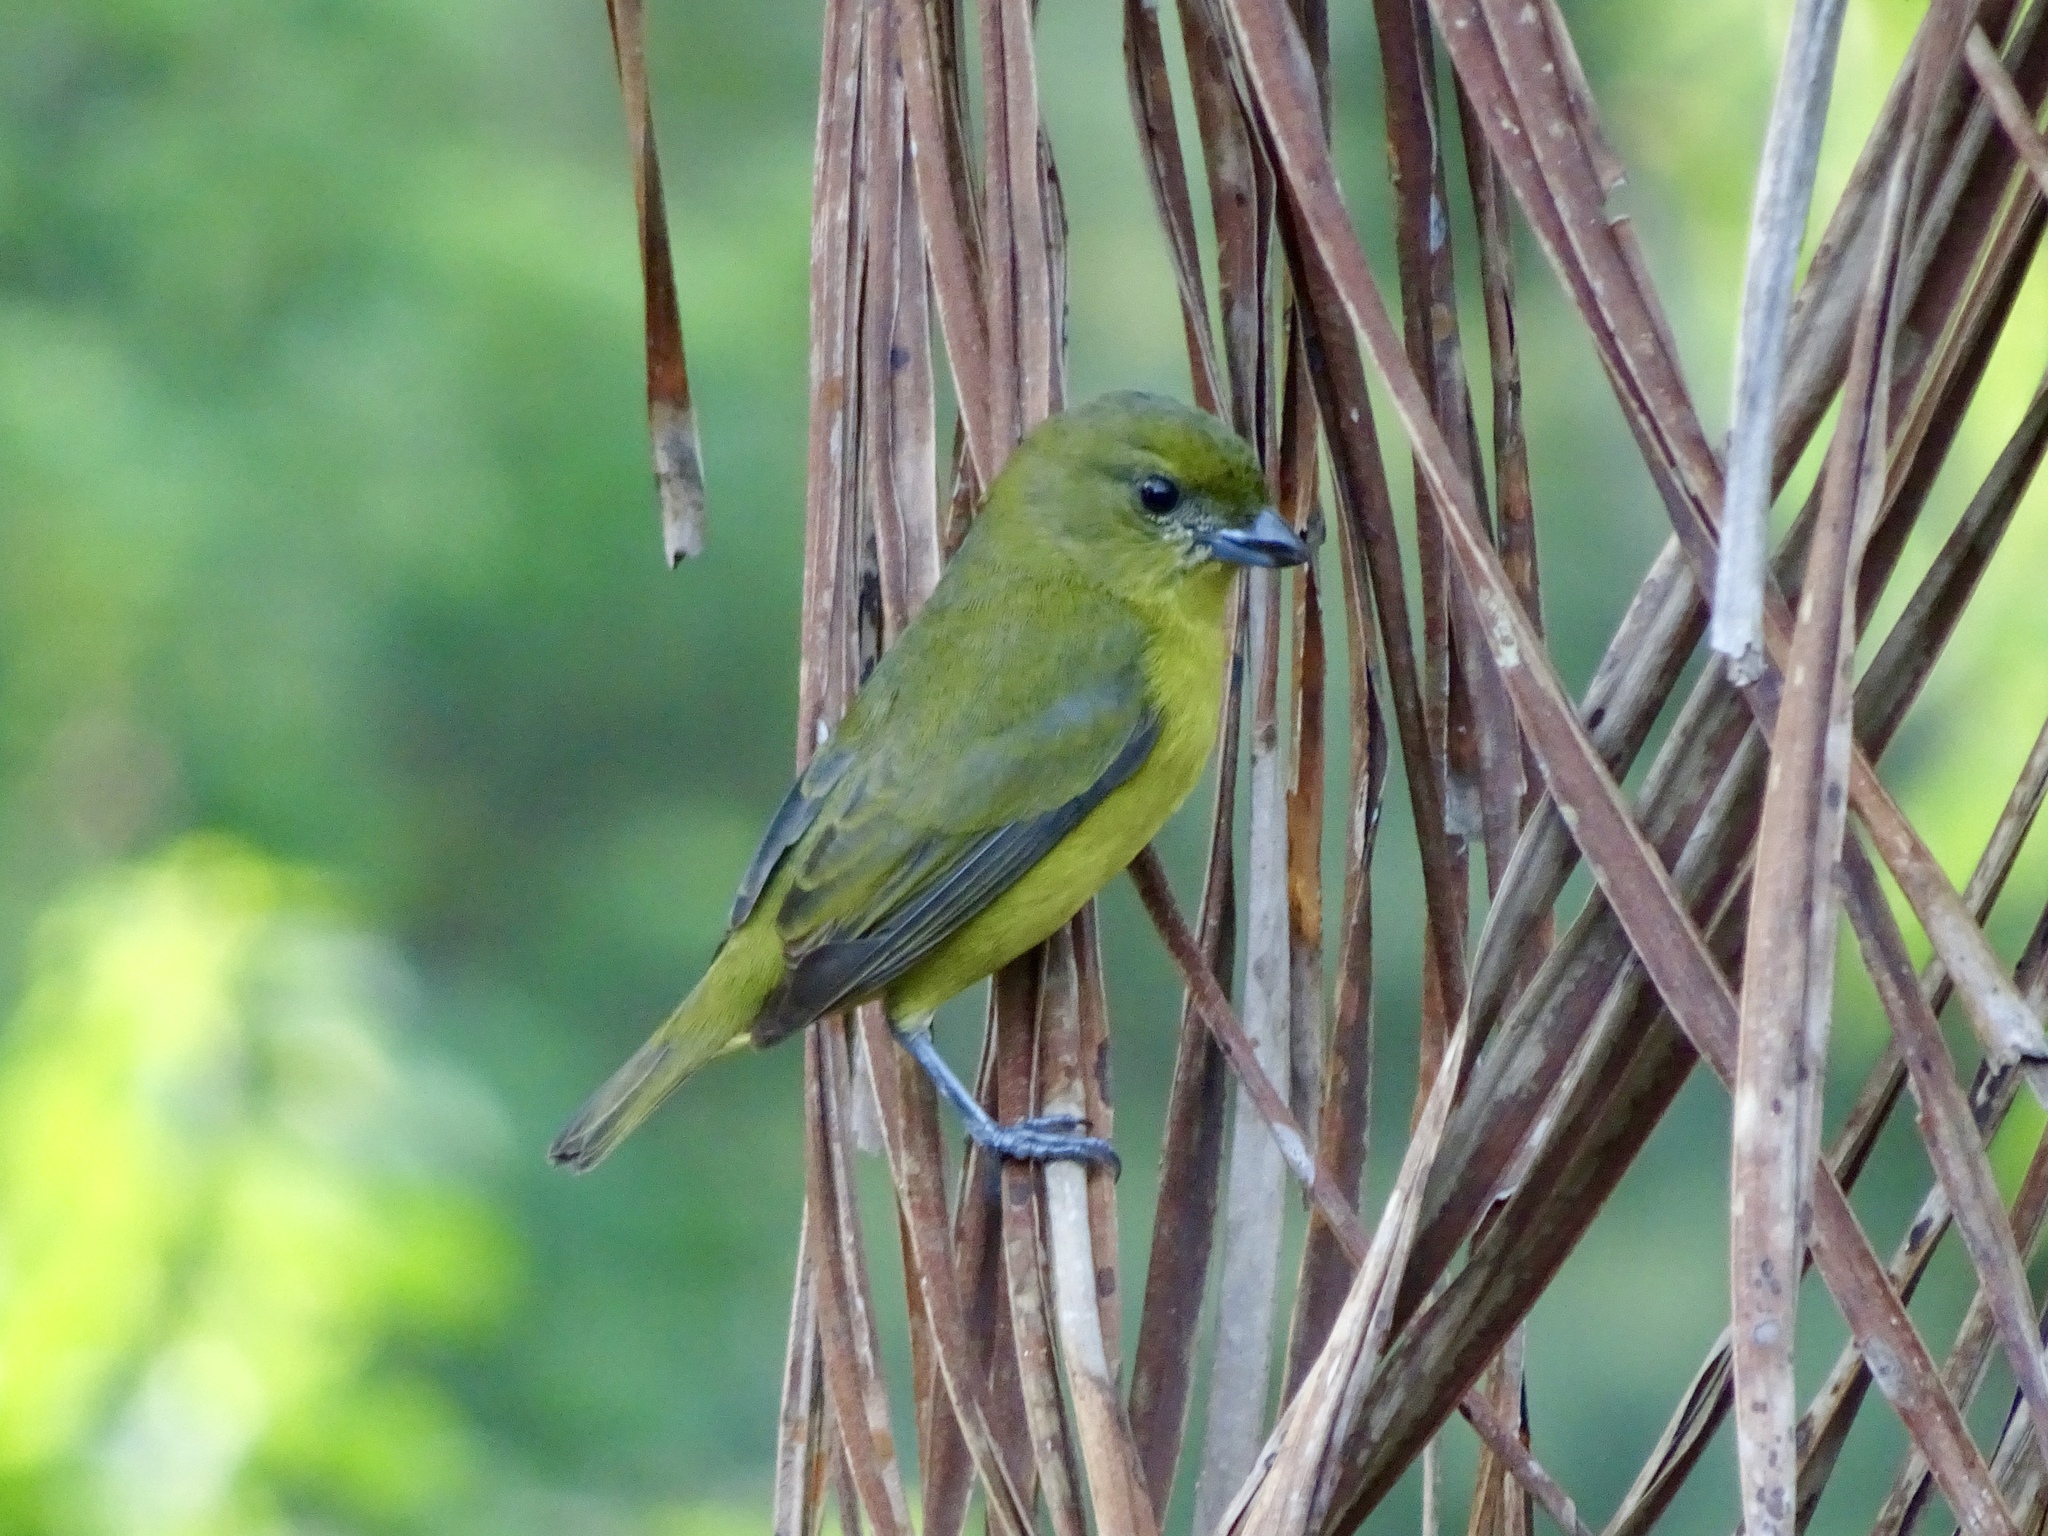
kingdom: Animalia
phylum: Chordata
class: Aves
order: Passeriformes
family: Fringillidae
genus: Euphonia
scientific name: Euphonia laniirostris
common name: Thick-billed euphonia
